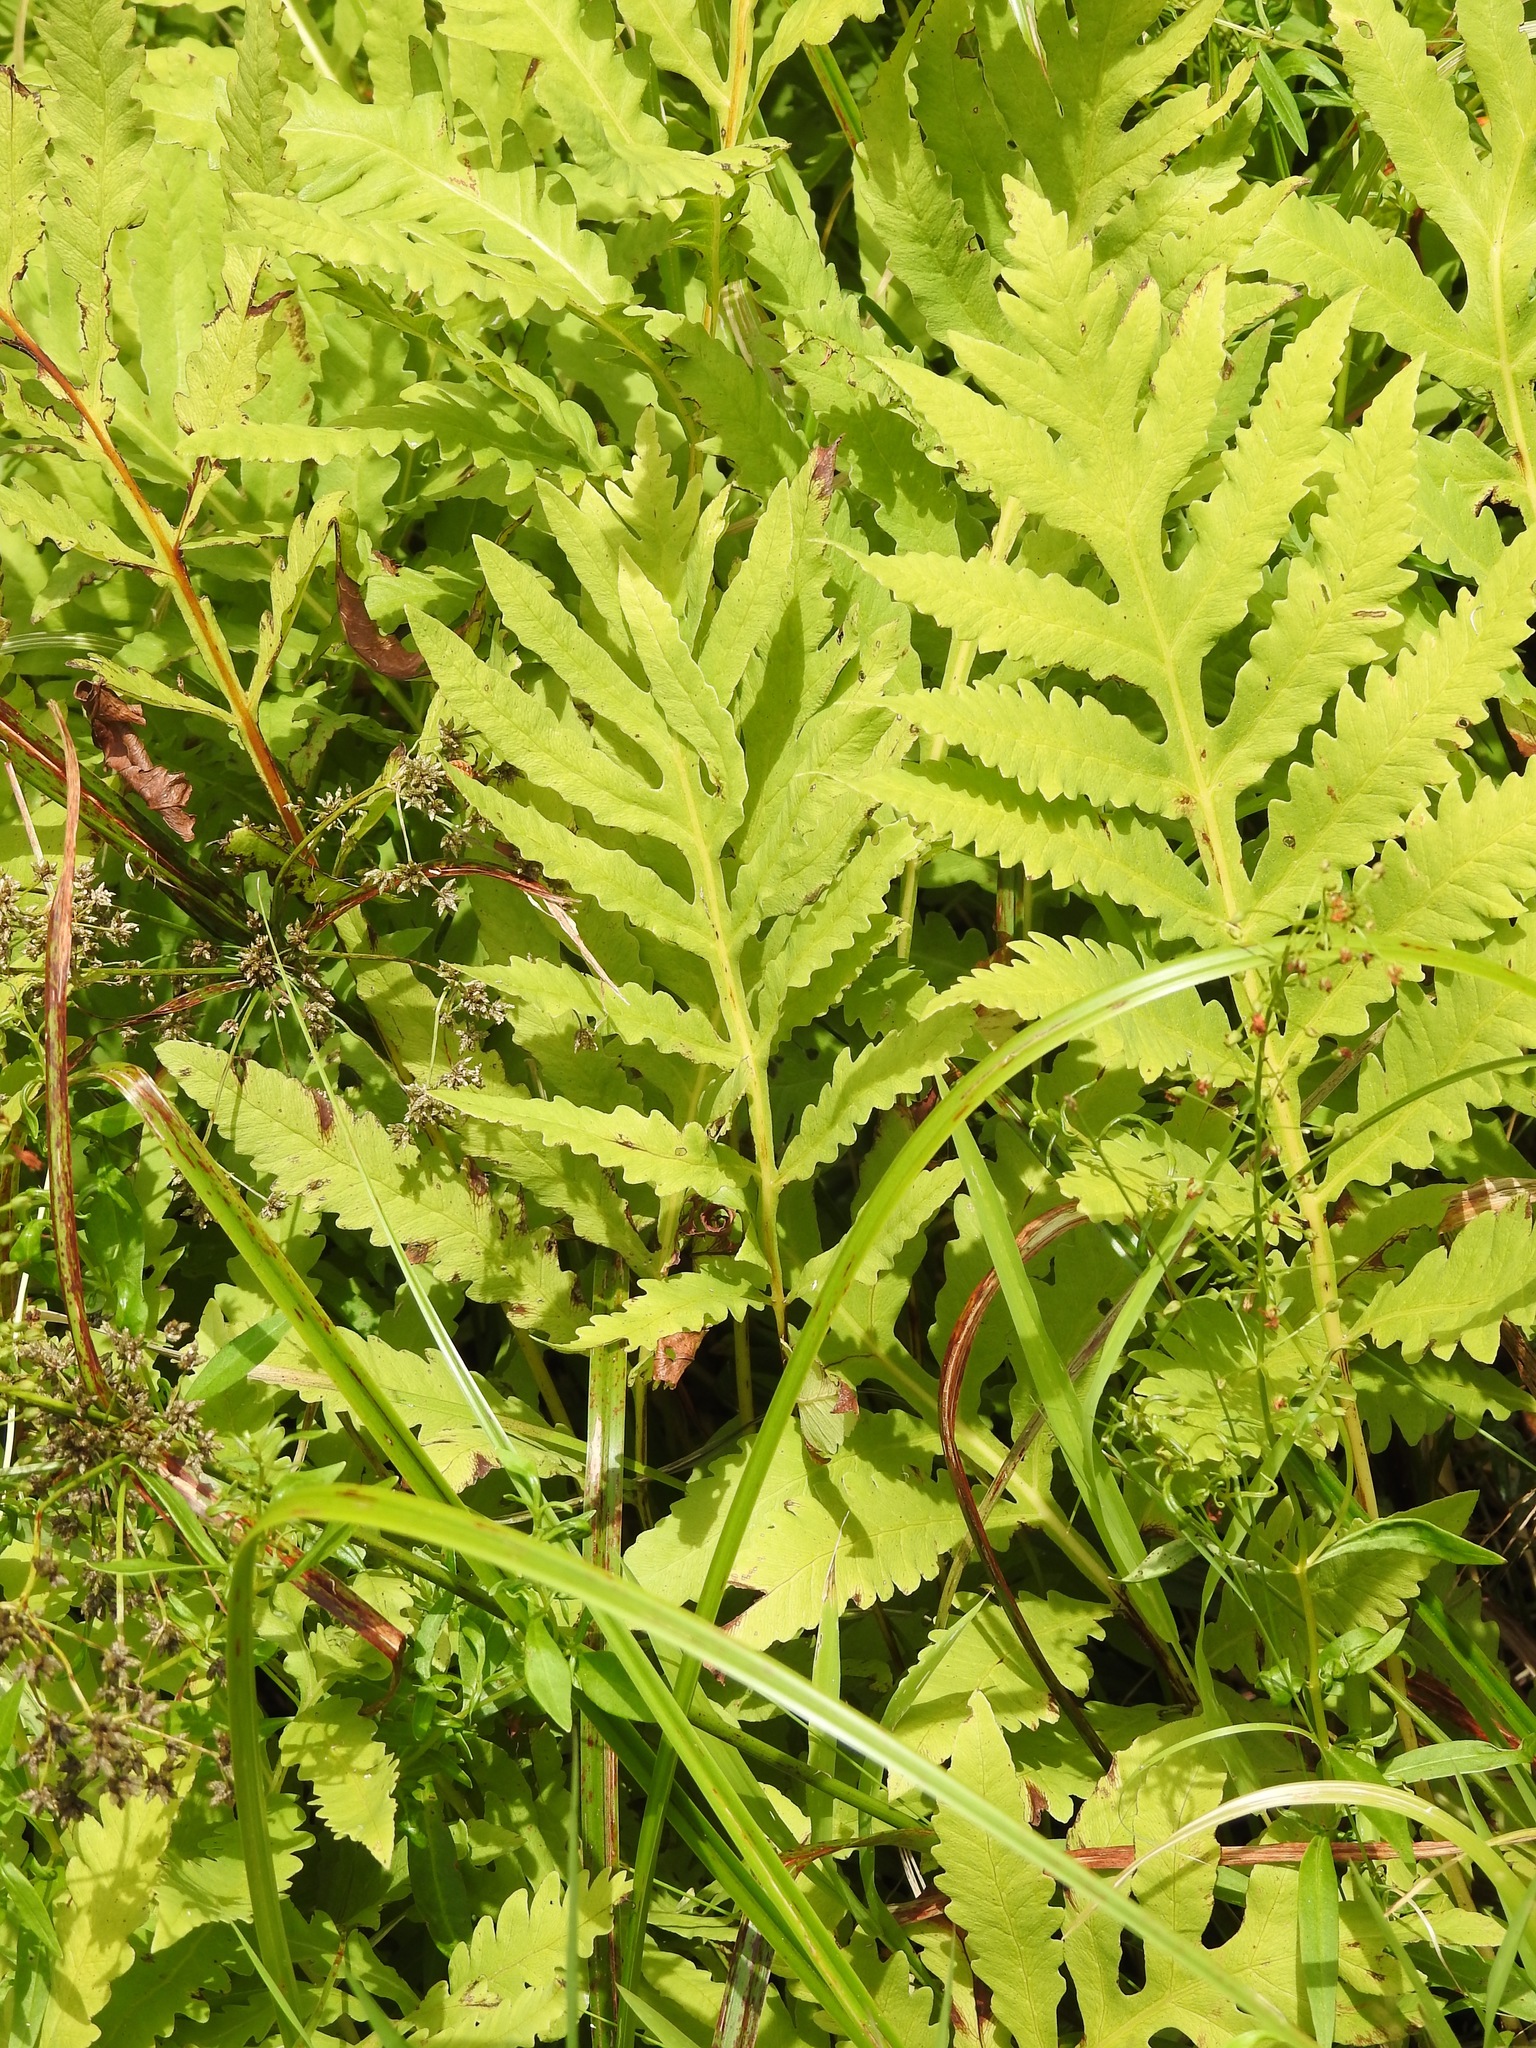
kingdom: Plantae
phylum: Tracheophyta
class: Polypodiopsida
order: Polypodiales
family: Onocleaceae
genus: Onoclea
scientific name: Onoclea sensibilis
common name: Sensitive fern
